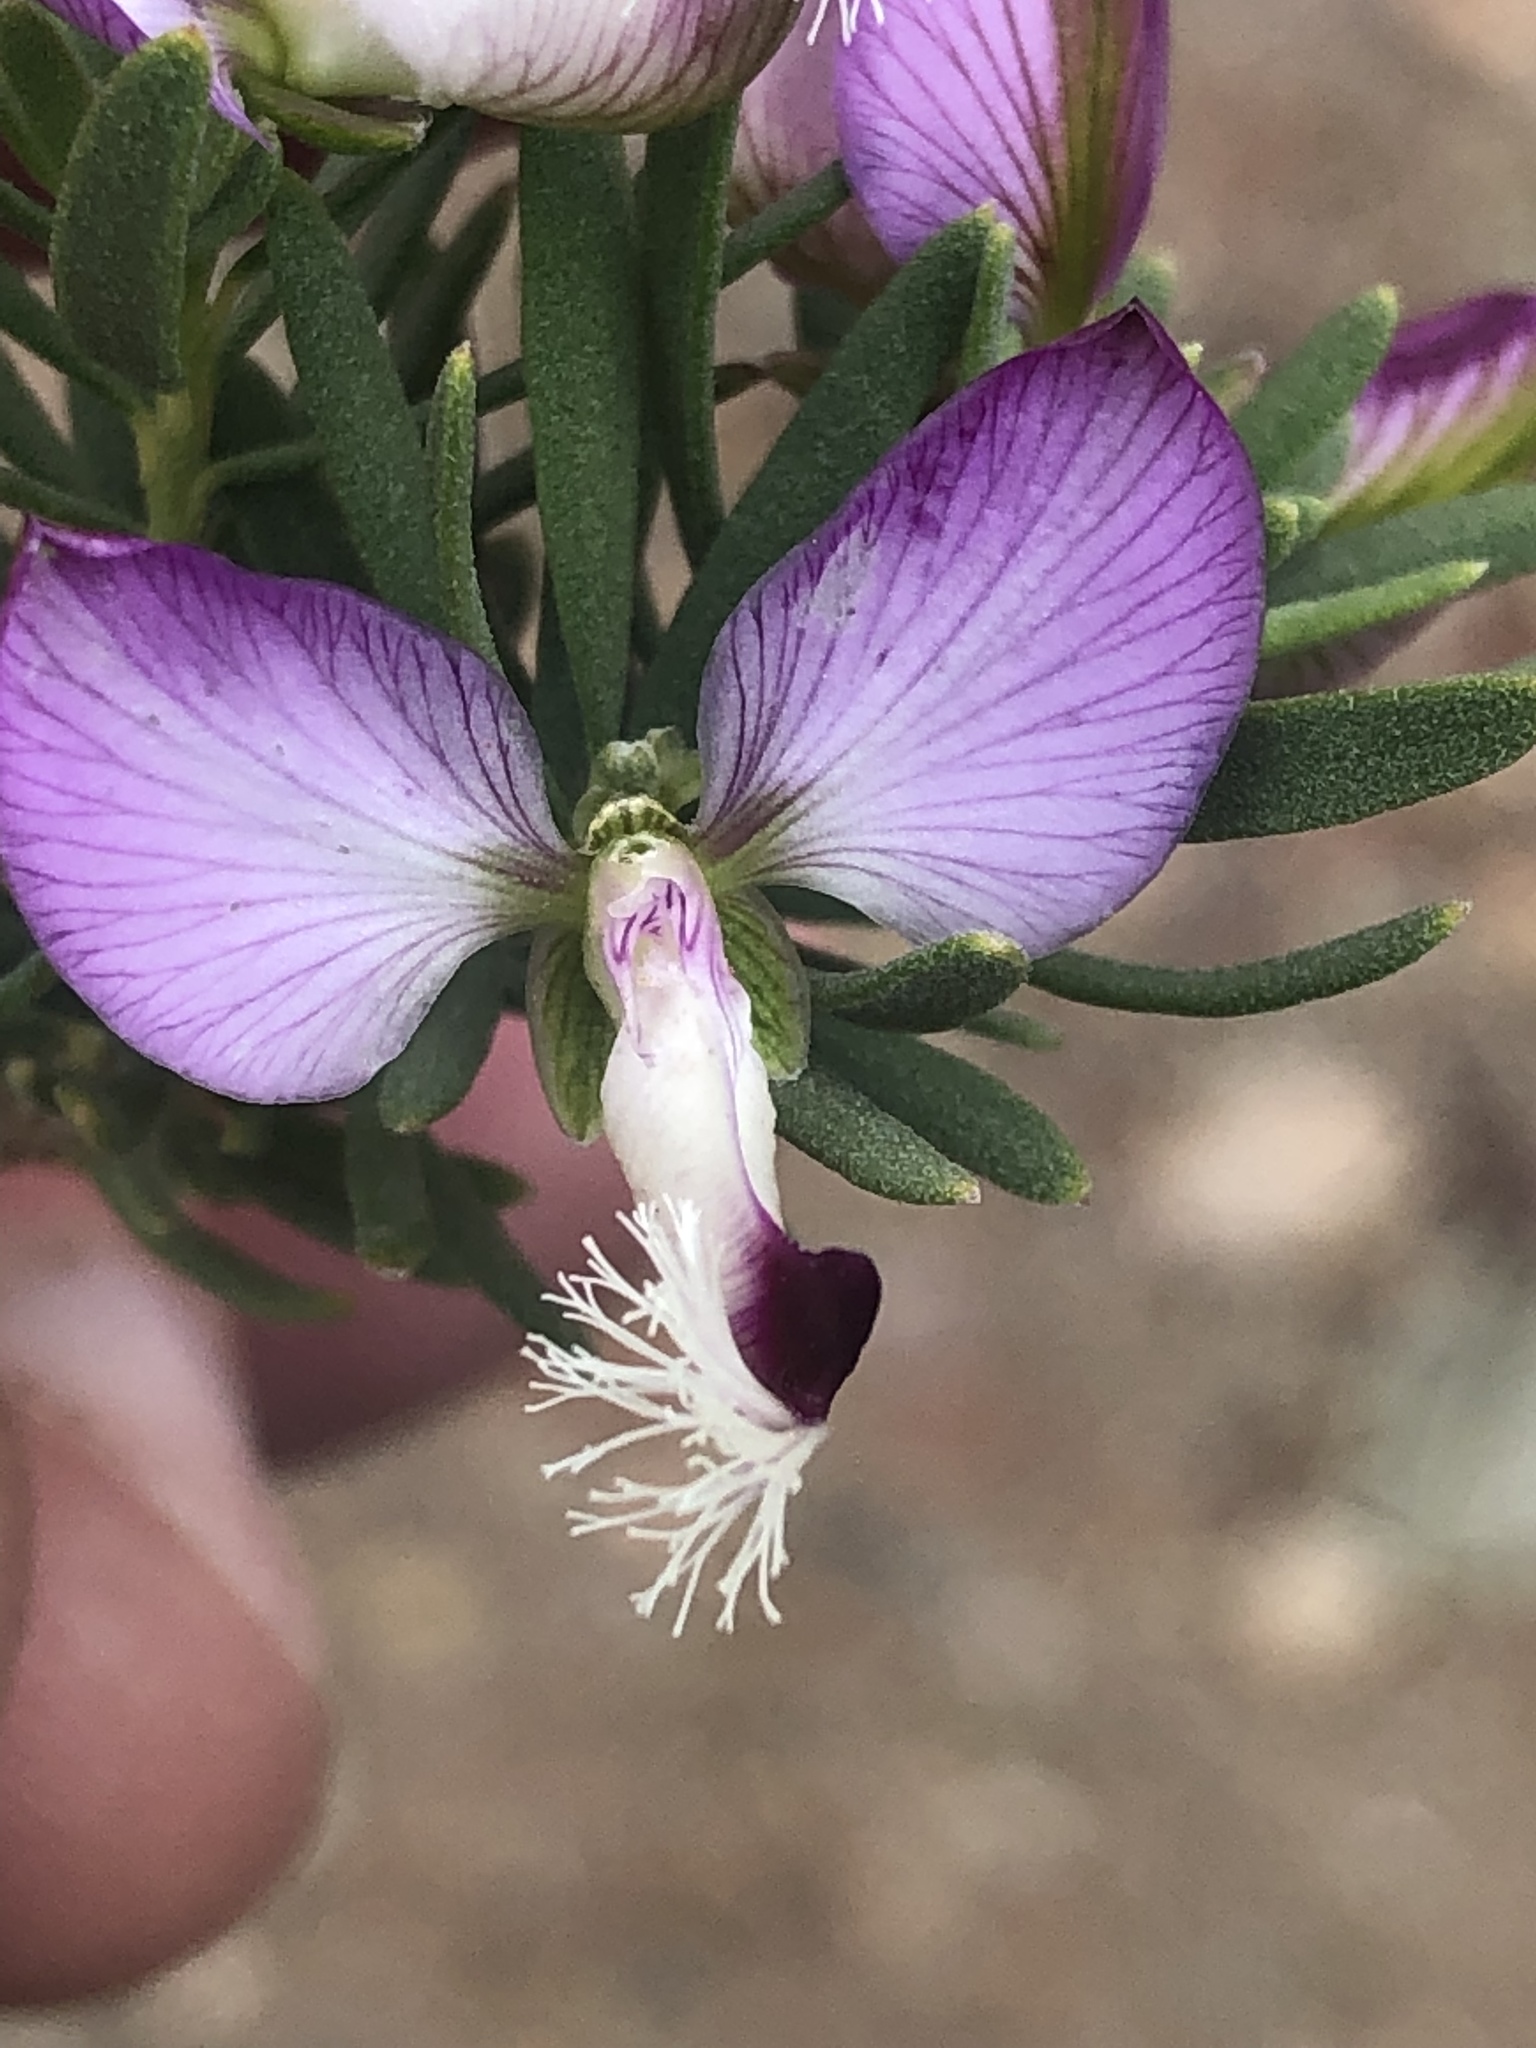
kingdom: Plantae
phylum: Tracheophyta
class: Magnoliopsida
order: Fabales
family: Polygalaceae
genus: Polygala
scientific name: Polygala myrtifolia
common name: Myrtle-leaf milkwort
